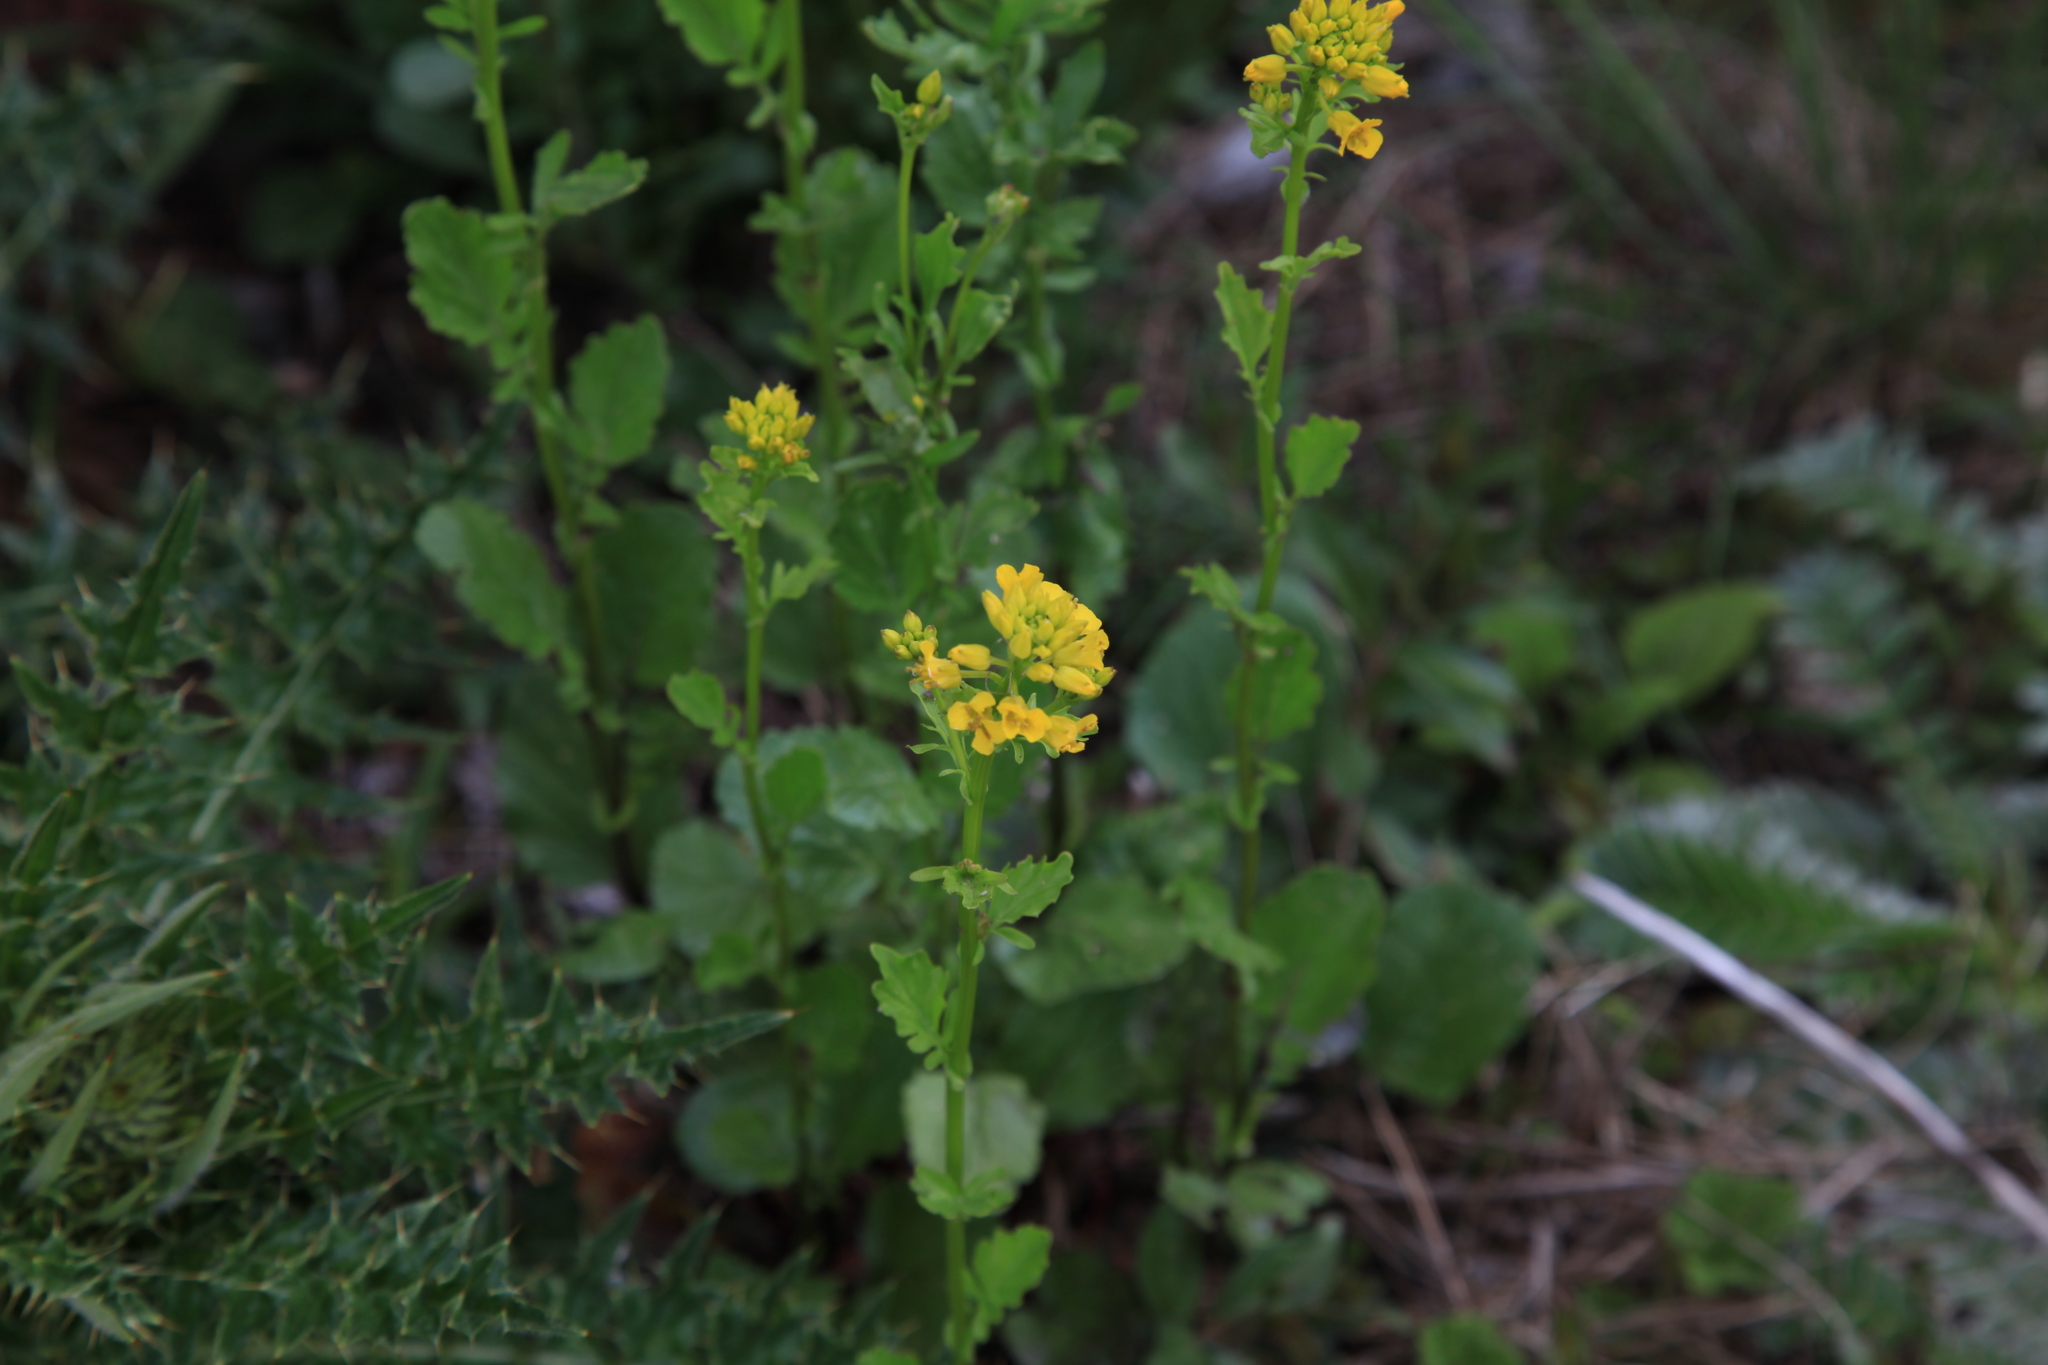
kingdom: Plantae
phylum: Tracheophyta
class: Magnoliopsida
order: Brassicales
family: Brassicaceae
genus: Barbarea
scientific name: Barbarea orthoceras
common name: American wintercress
